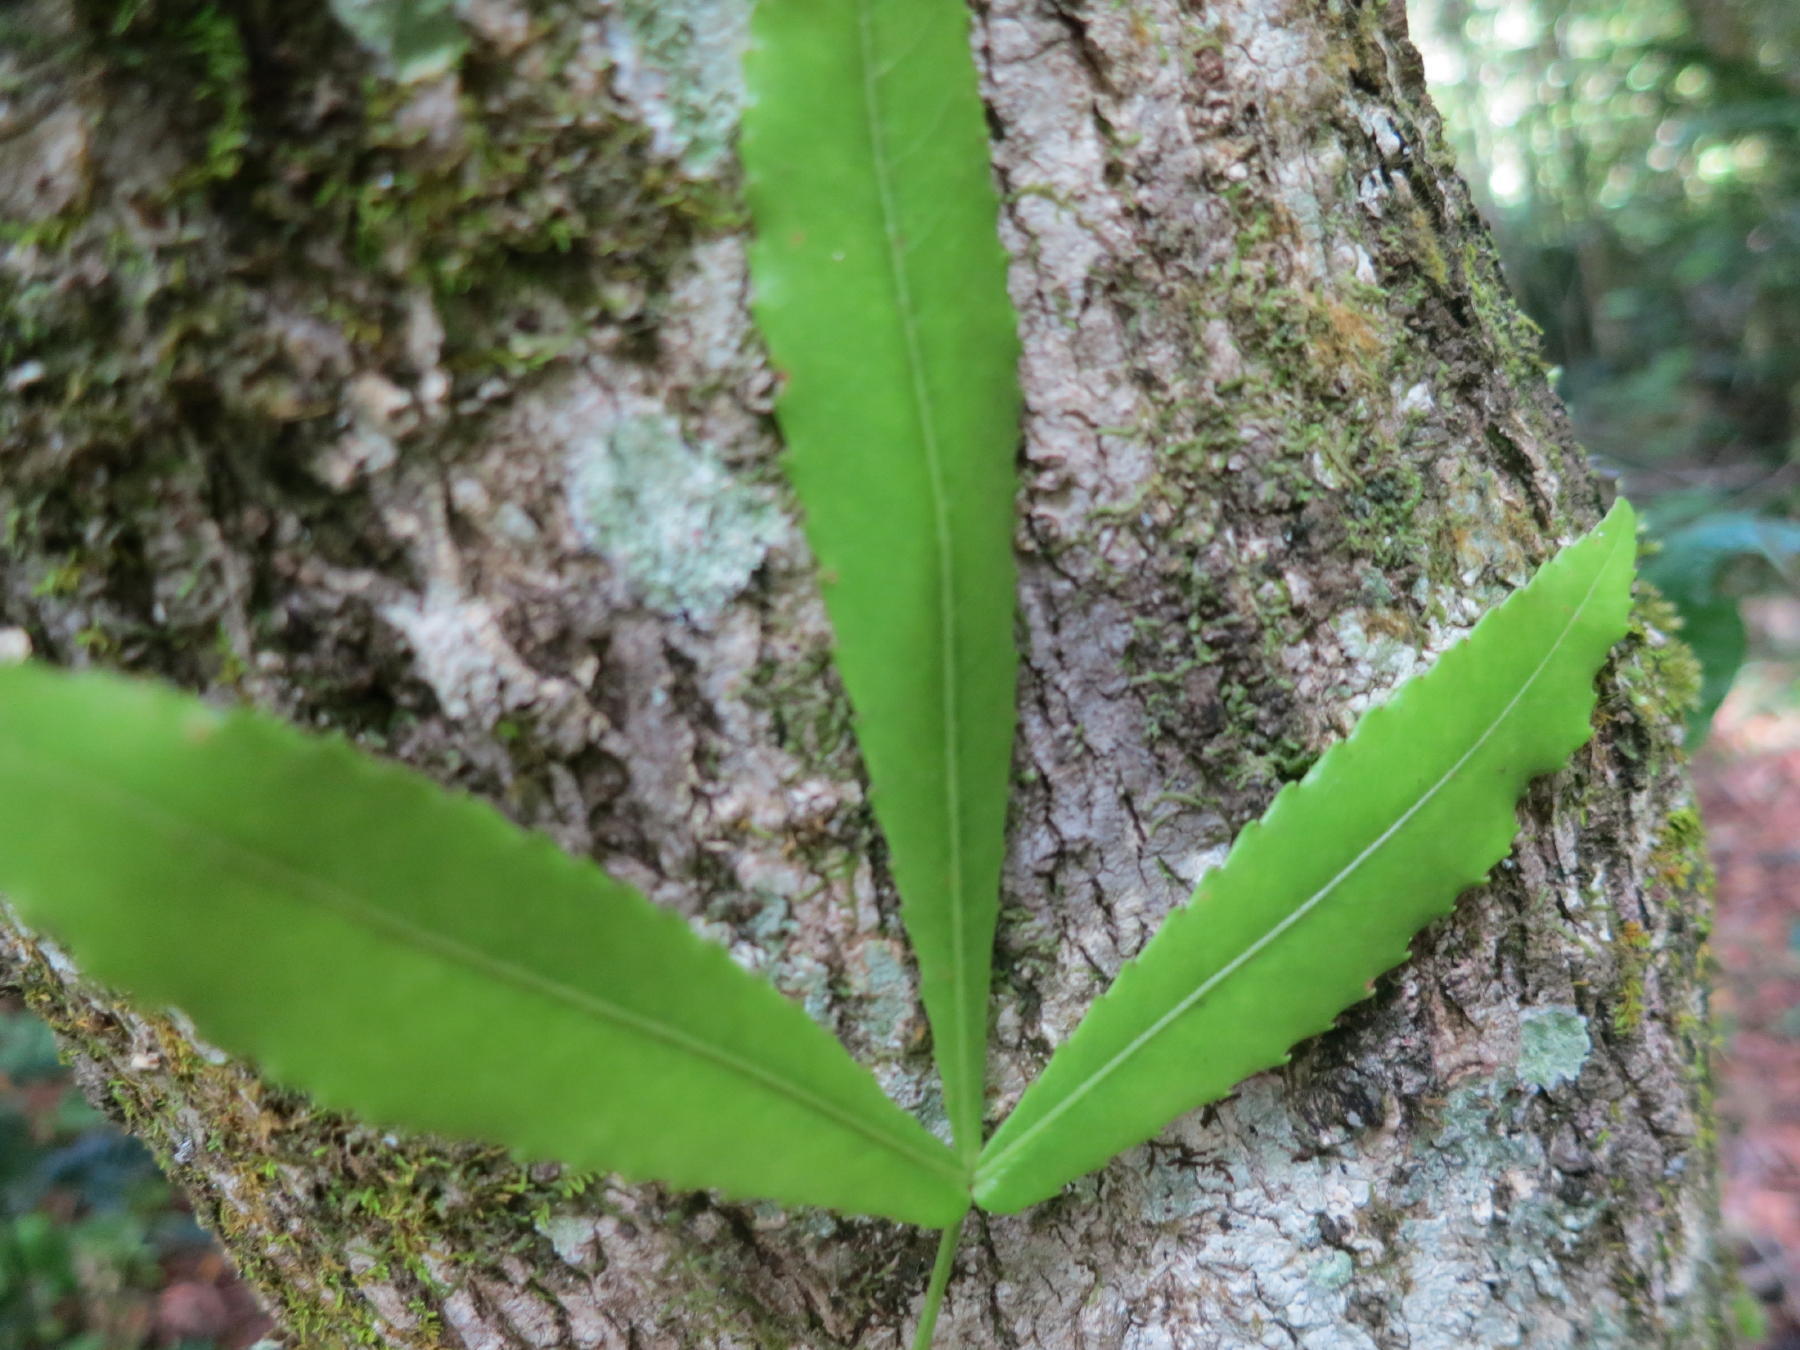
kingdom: Plantae
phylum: Tracheophyta
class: Magnoliopsida
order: Oxalidales
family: Cunoniaceae
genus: Platylophus
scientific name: Platylophus trifoliatus
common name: White alder
